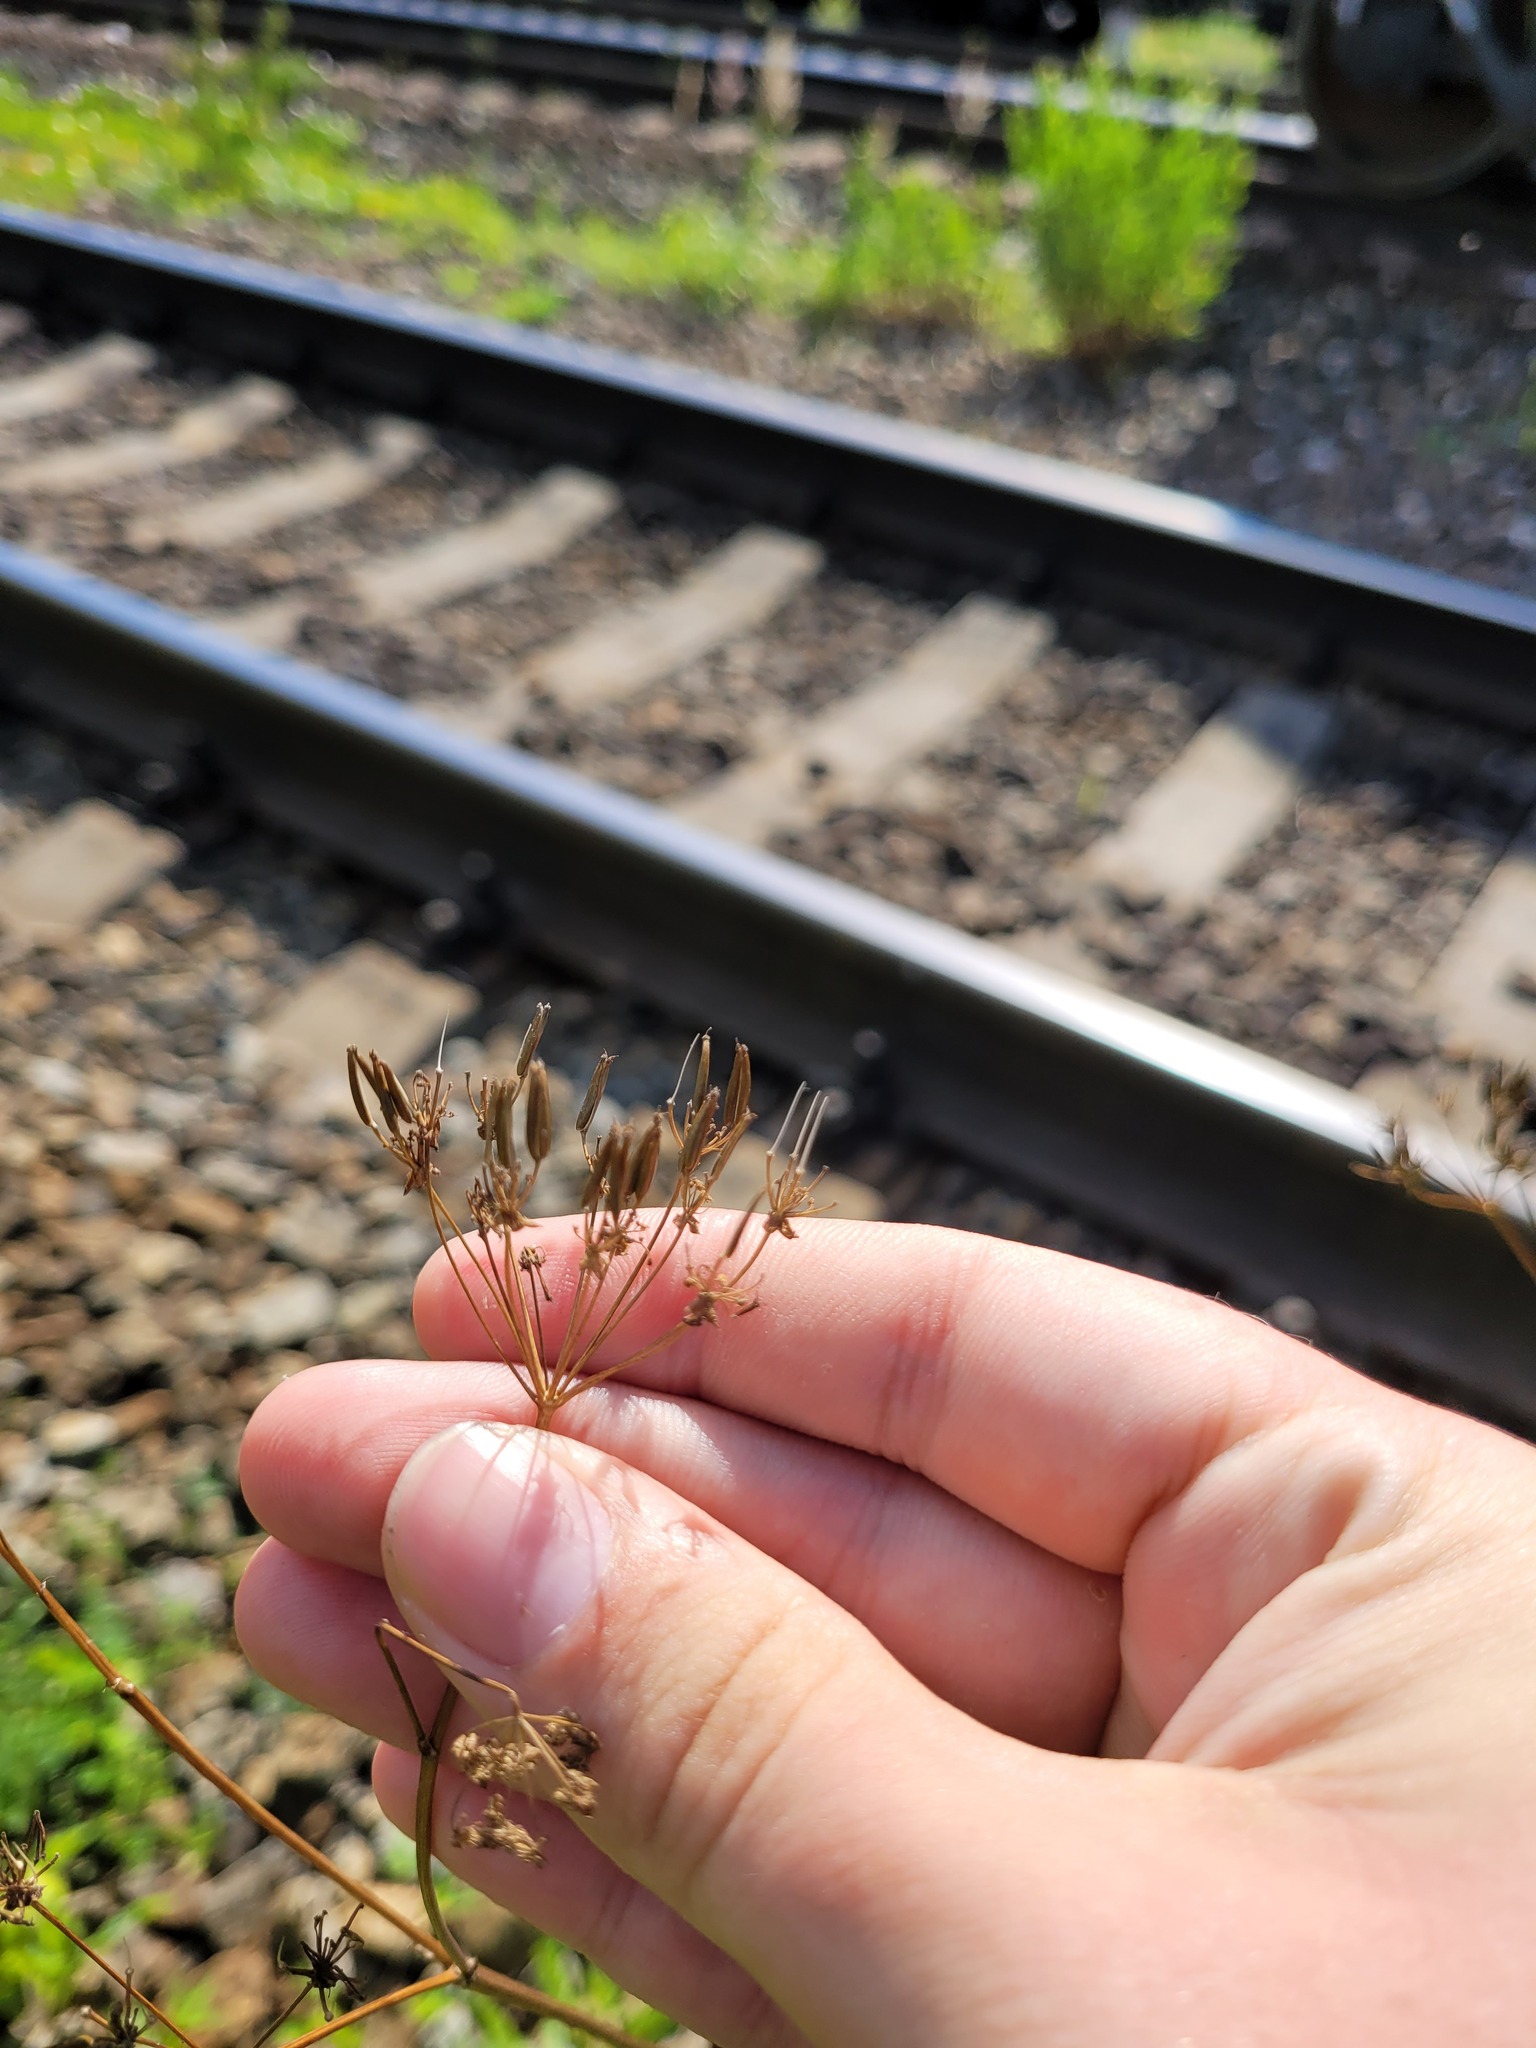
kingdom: Plantae
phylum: Tracheophyta
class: Magnoliopsida
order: Apiales
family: Apiaceae
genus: Anthriscus
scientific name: Anthriscus sylvestris
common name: Cow parsley
